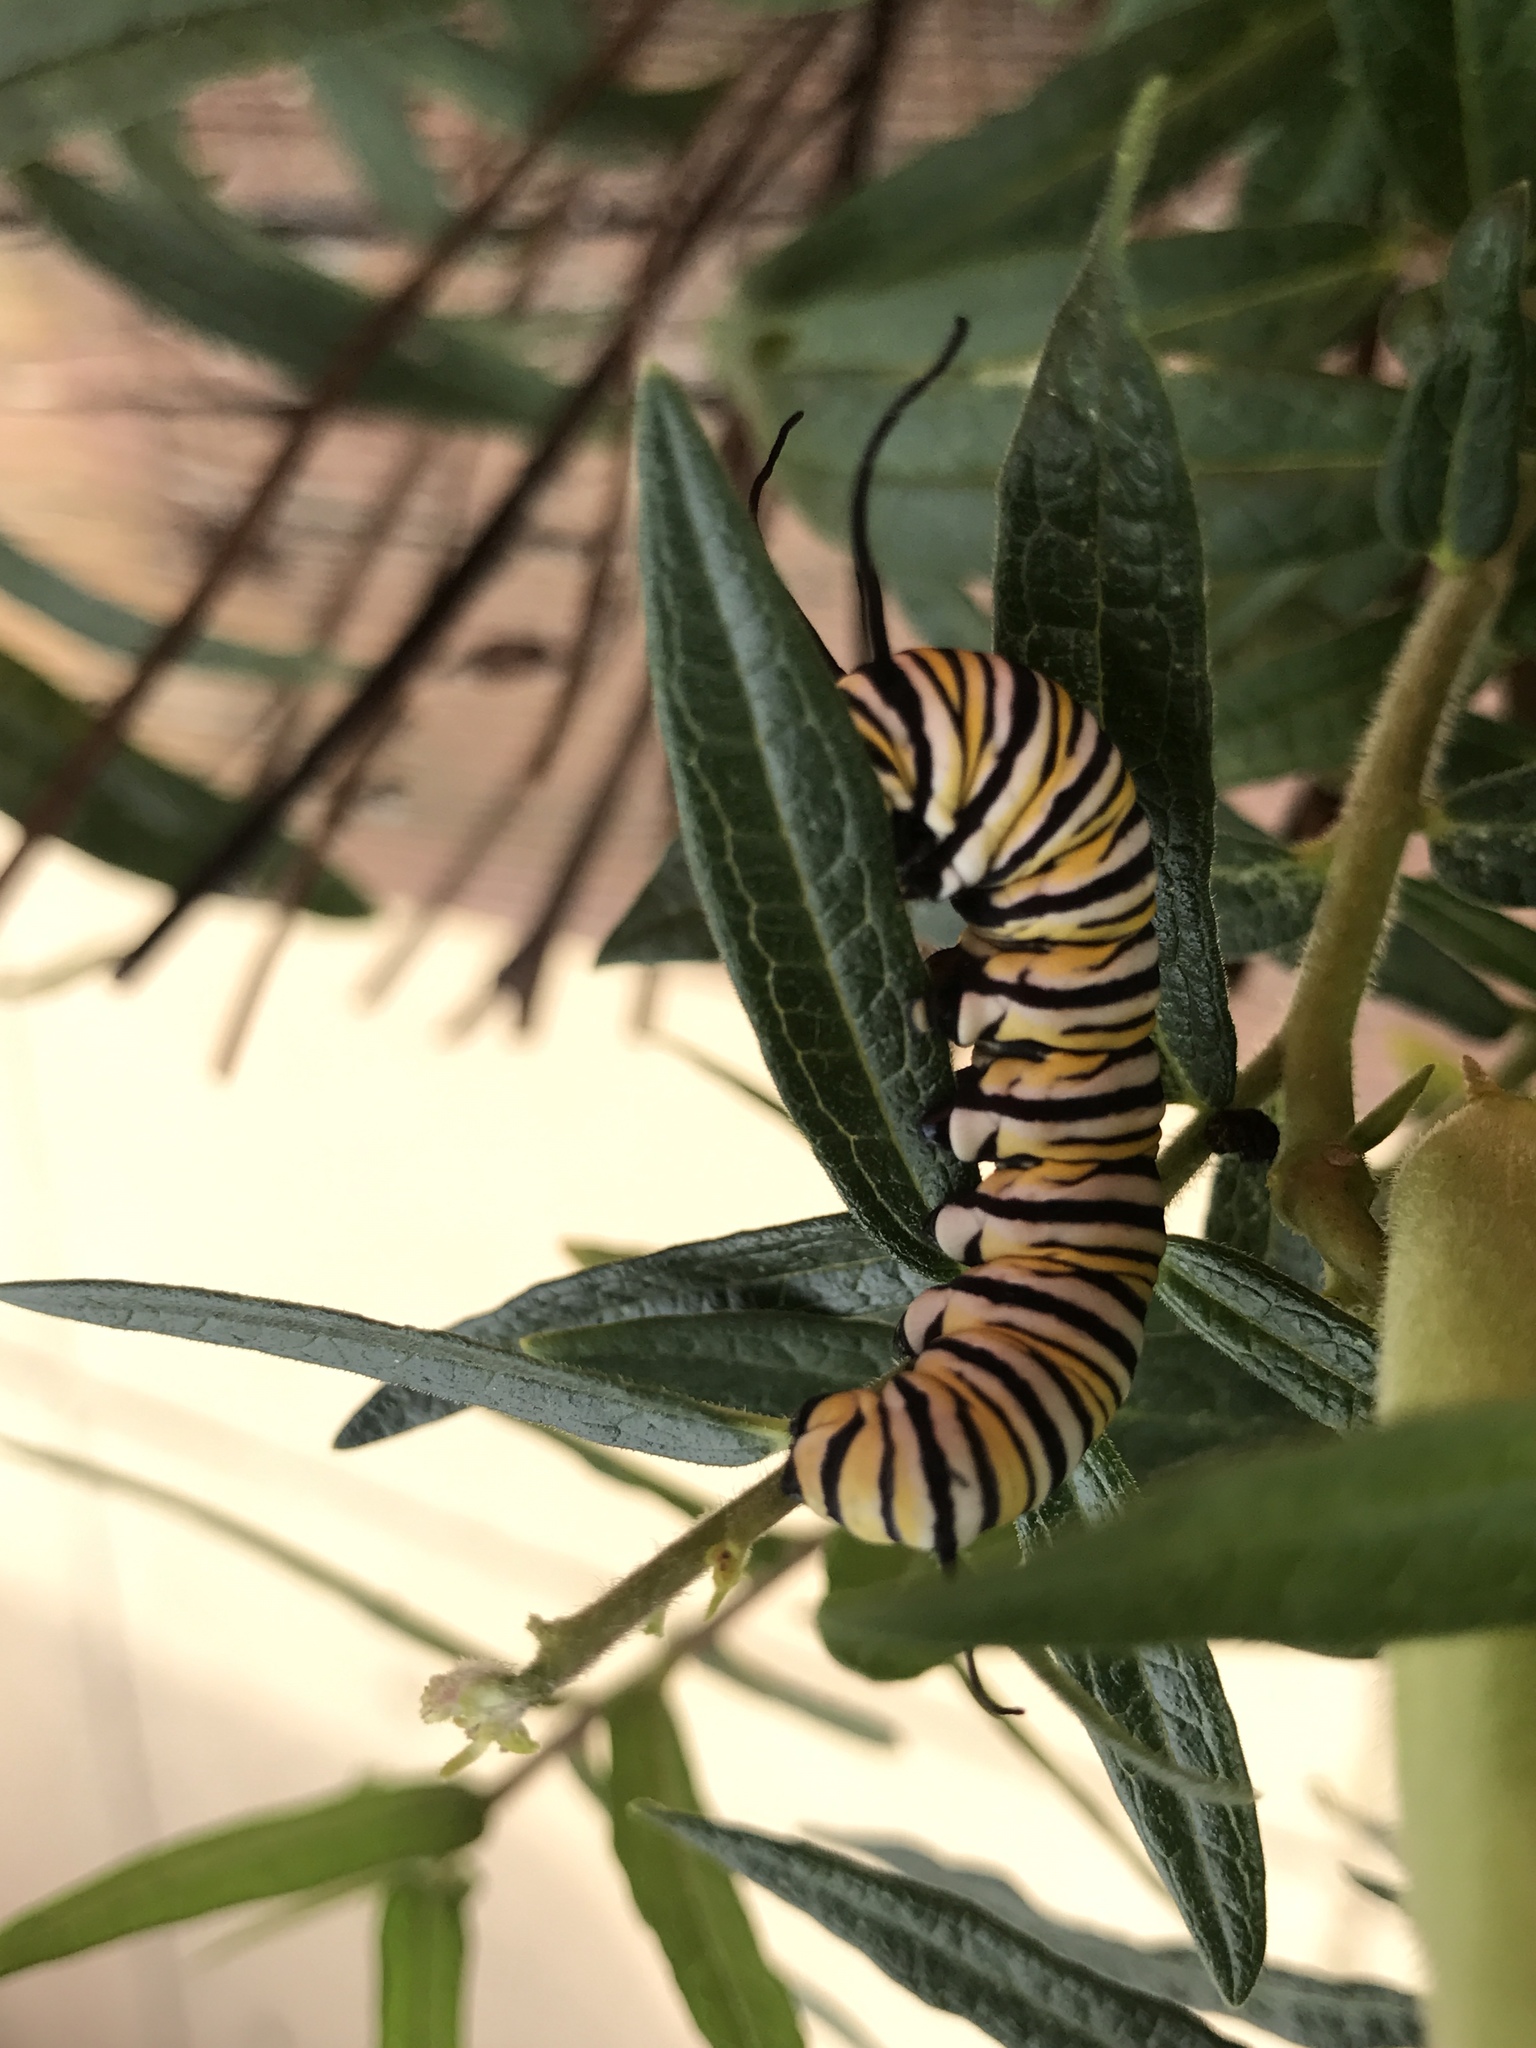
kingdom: Animalia
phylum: Arthropoda
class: Insecta
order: Lepidoptera
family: Nymphalidae
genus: Danaus
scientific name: Danaus plexippus
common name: Monarch
